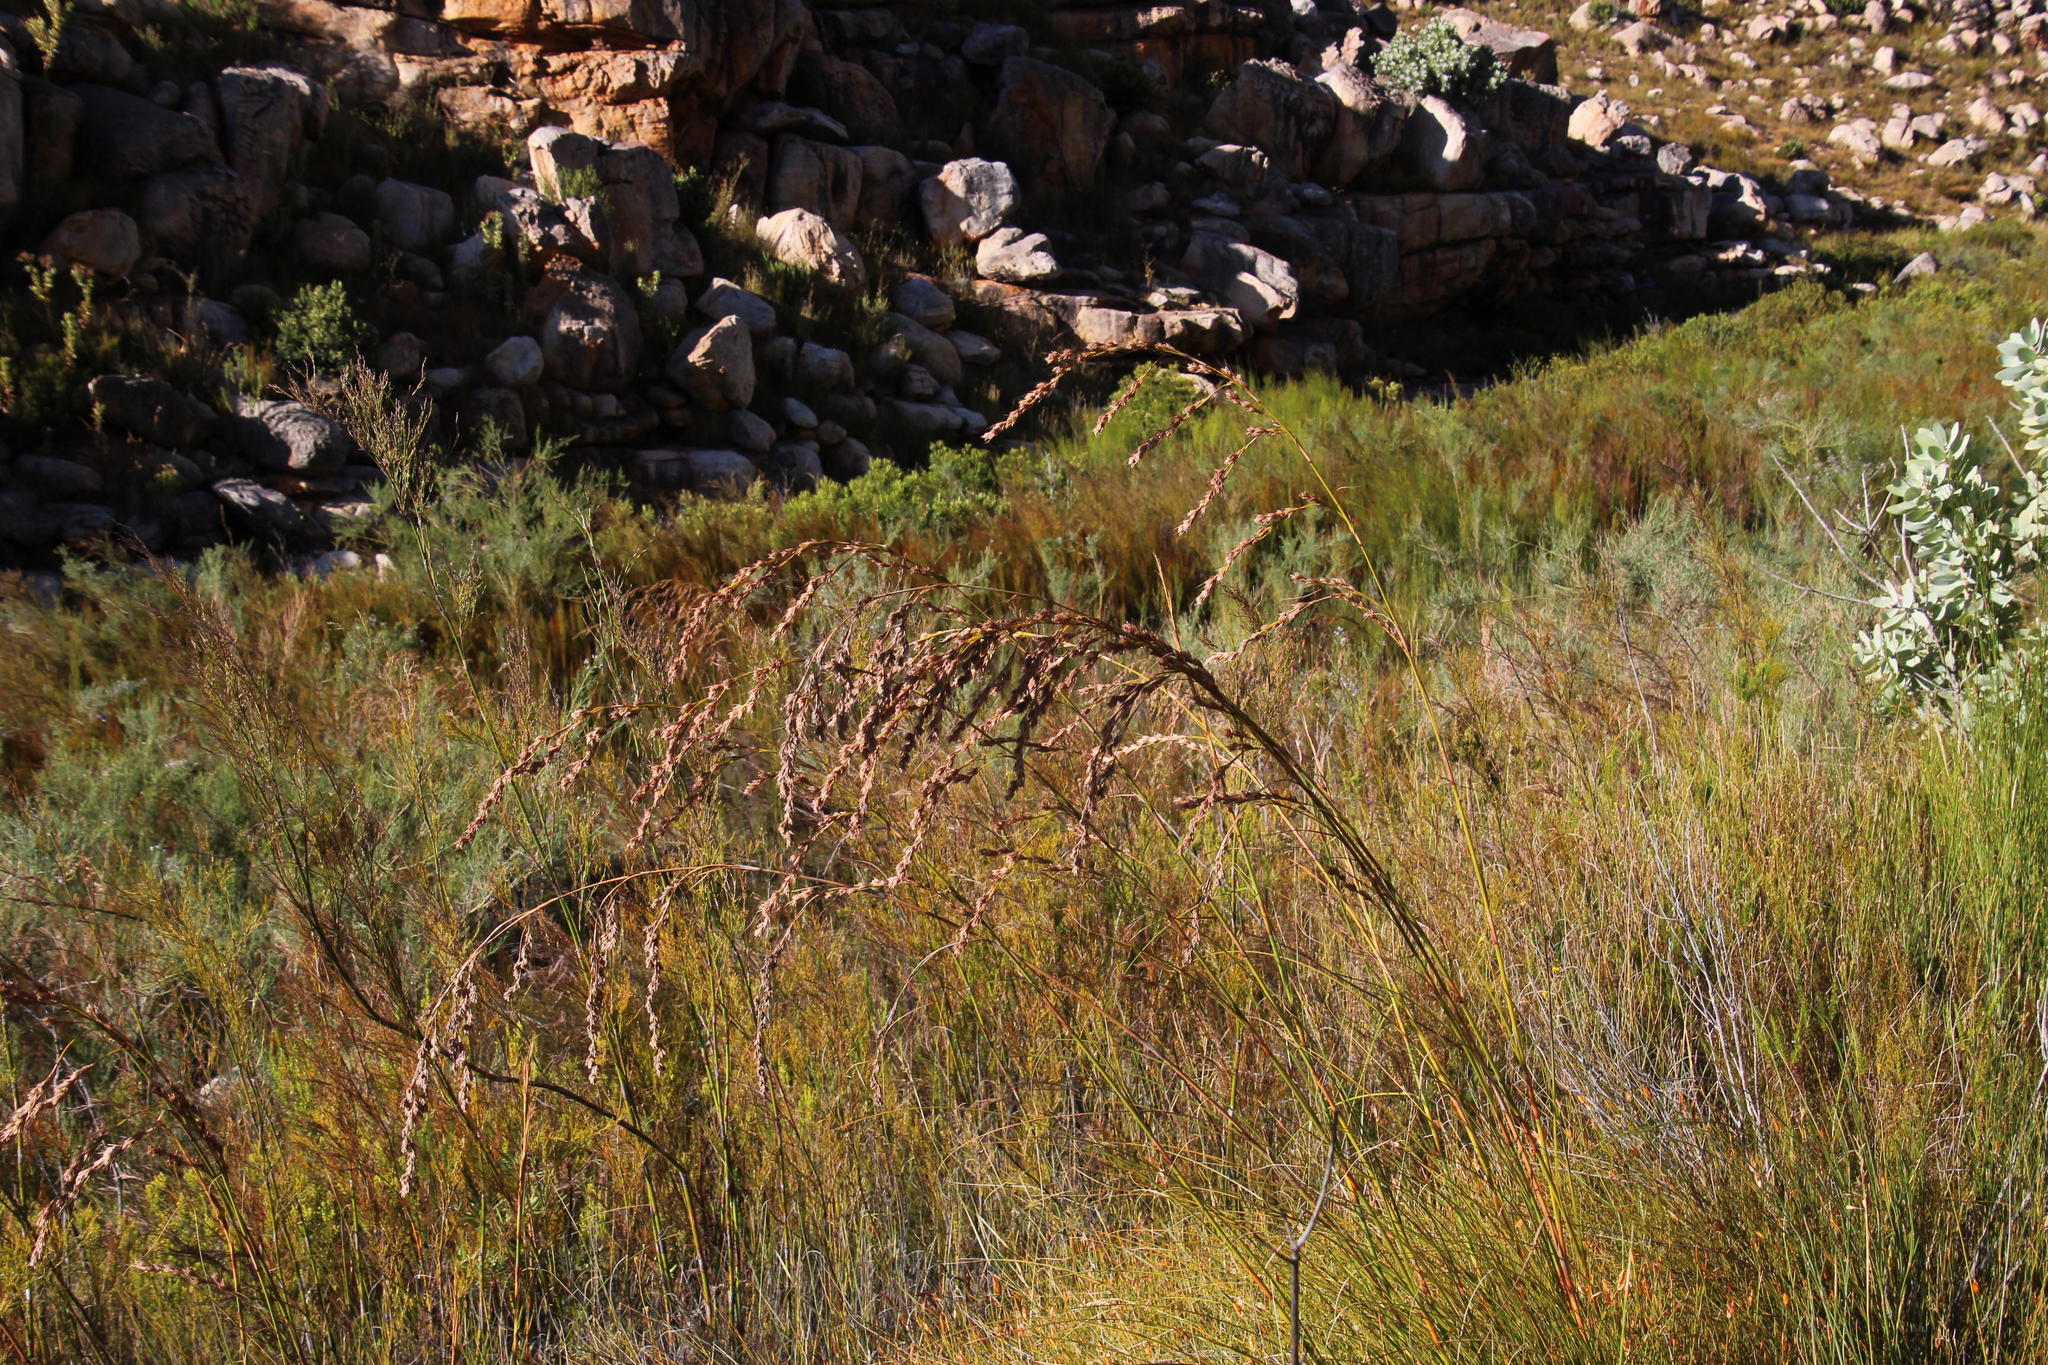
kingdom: Plantae
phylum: Tracheophyta
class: Liliopsida
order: Poales
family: Cyperaceae
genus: Tetraria
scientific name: Tetraria involucrata
